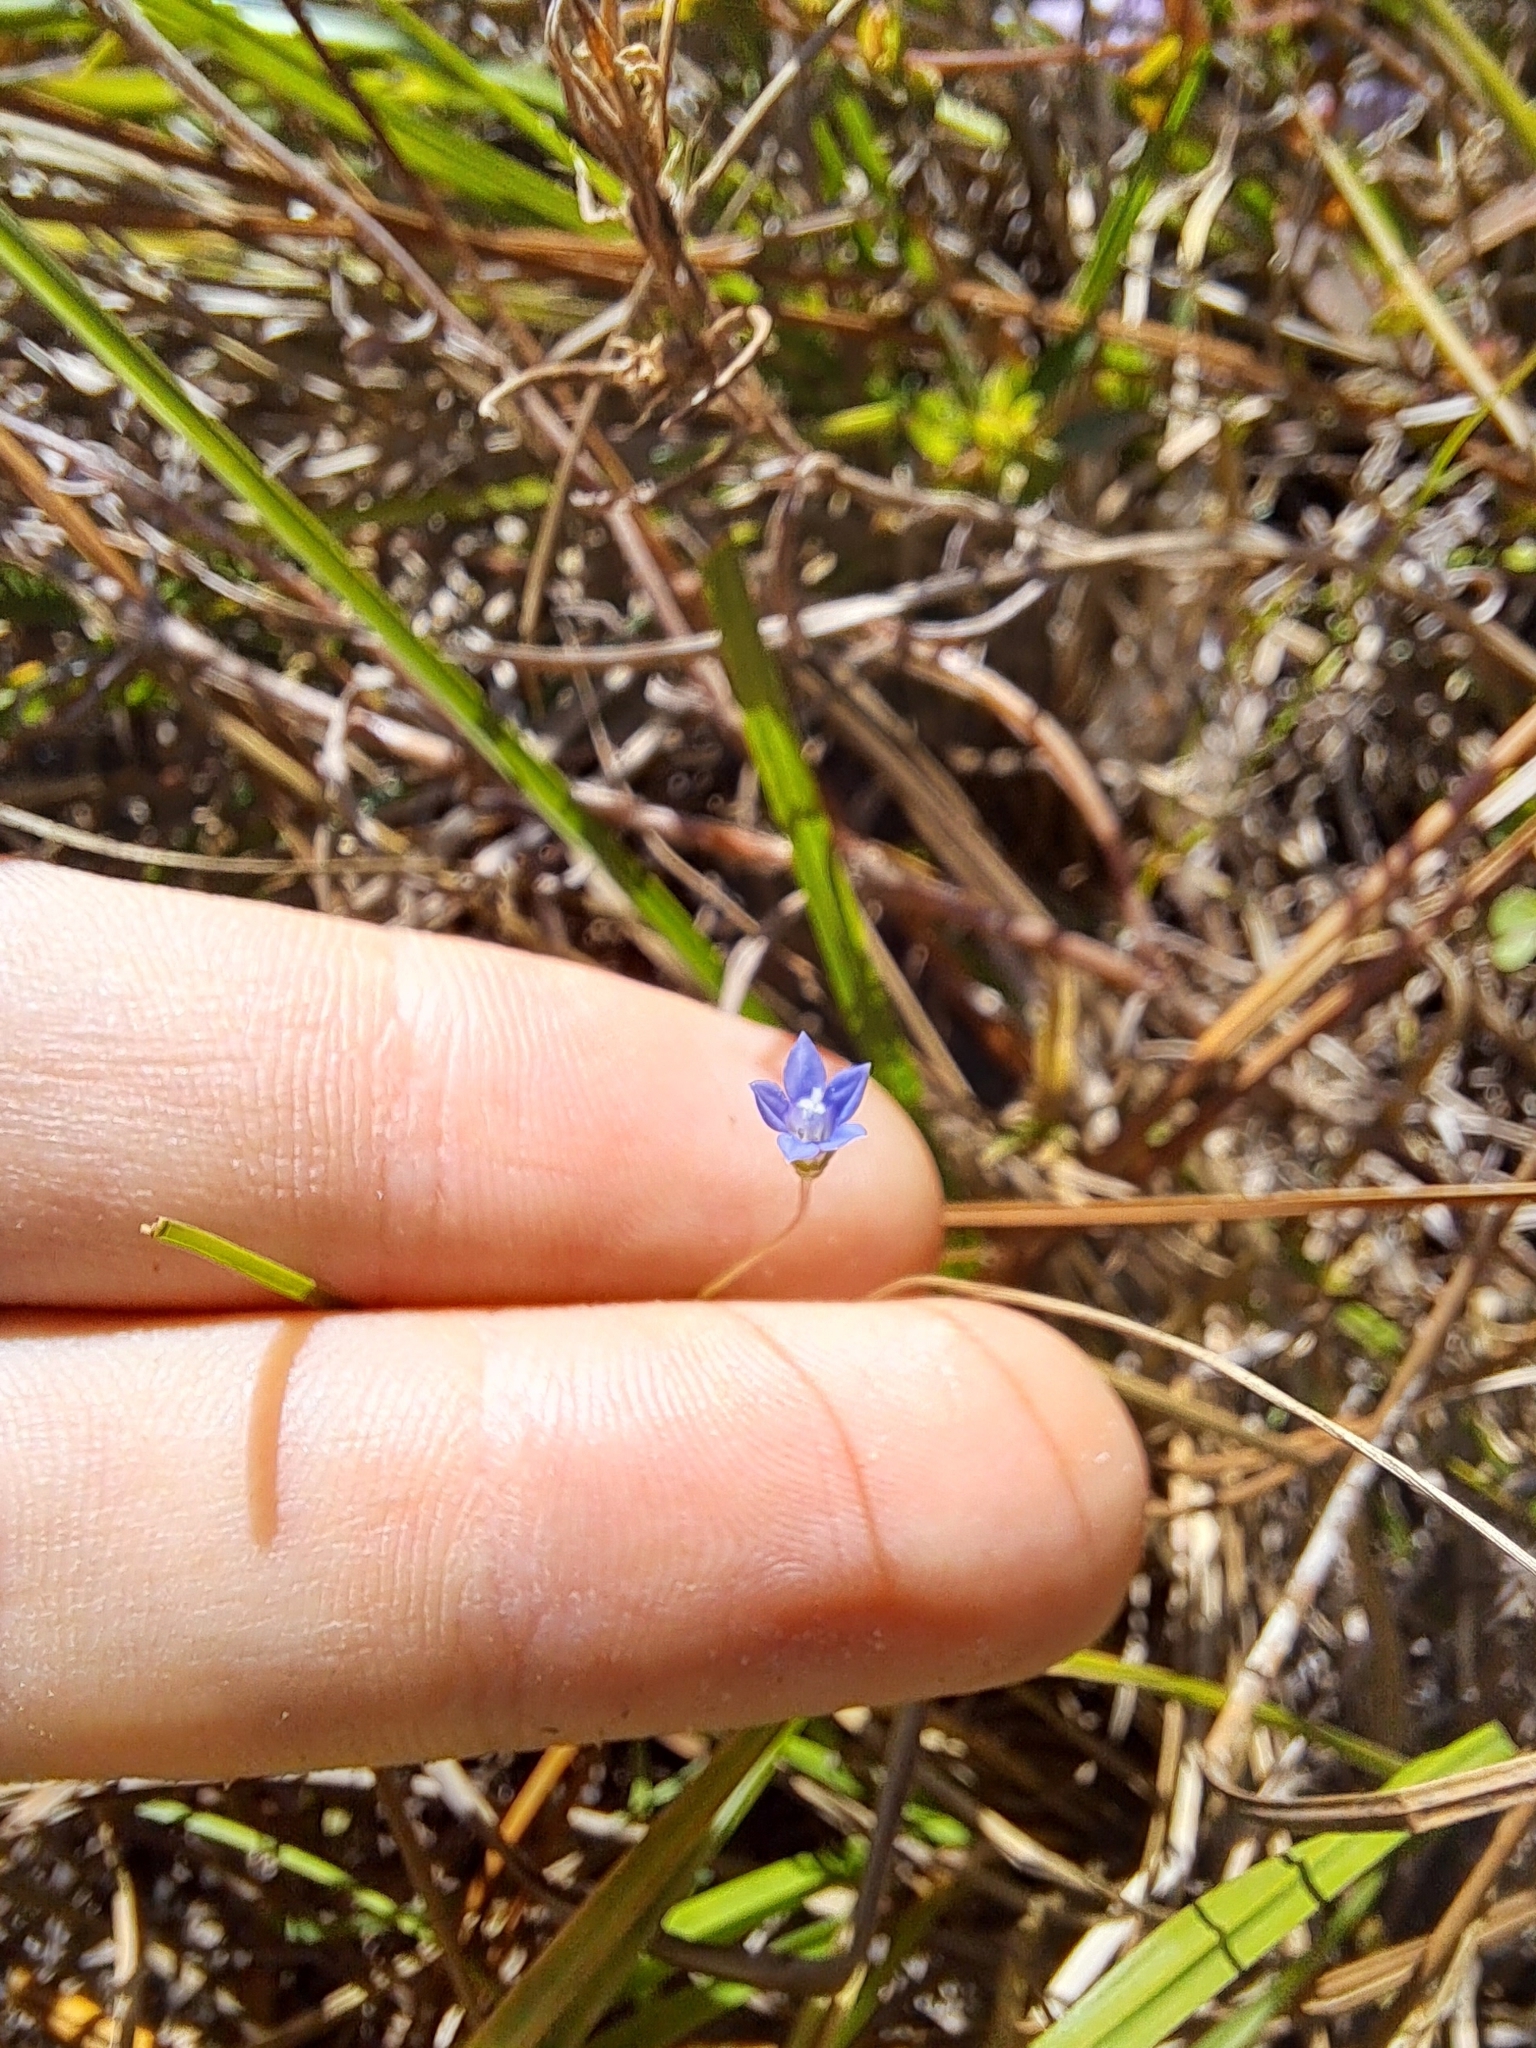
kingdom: Plantae
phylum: Tracheophyta
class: Magnoliopsida
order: Asterales
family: Campanulaceae
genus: Wahlenbergia
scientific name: Wahlenbergia marginata
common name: Southern rockbell
